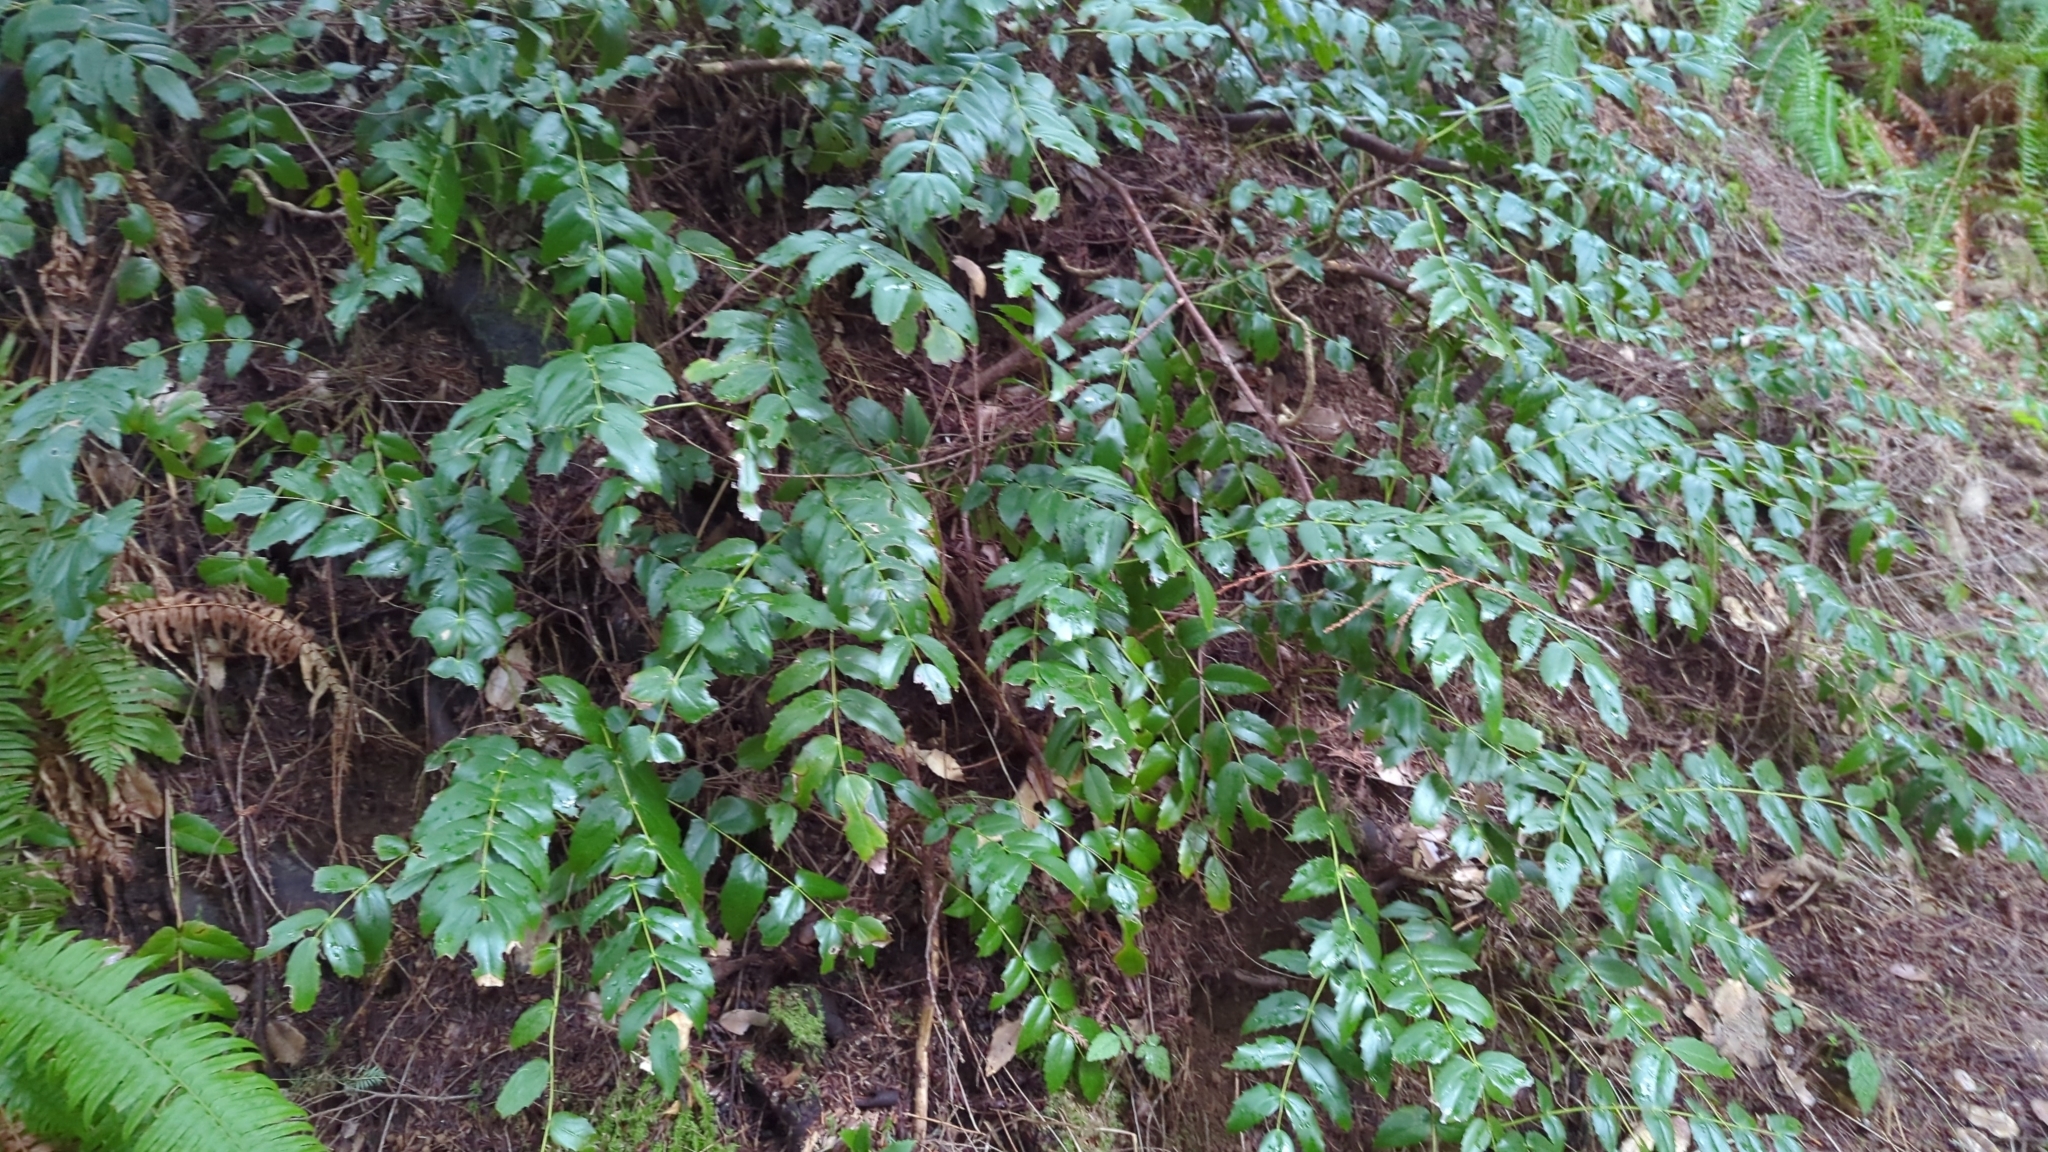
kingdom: Plantae
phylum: Tracheophyta
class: Magnoliopsida
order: Ranunculales
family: Berberidaceae
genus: Mahonia
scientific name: Mahonia nervosa
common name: Cascade oregon-grape
